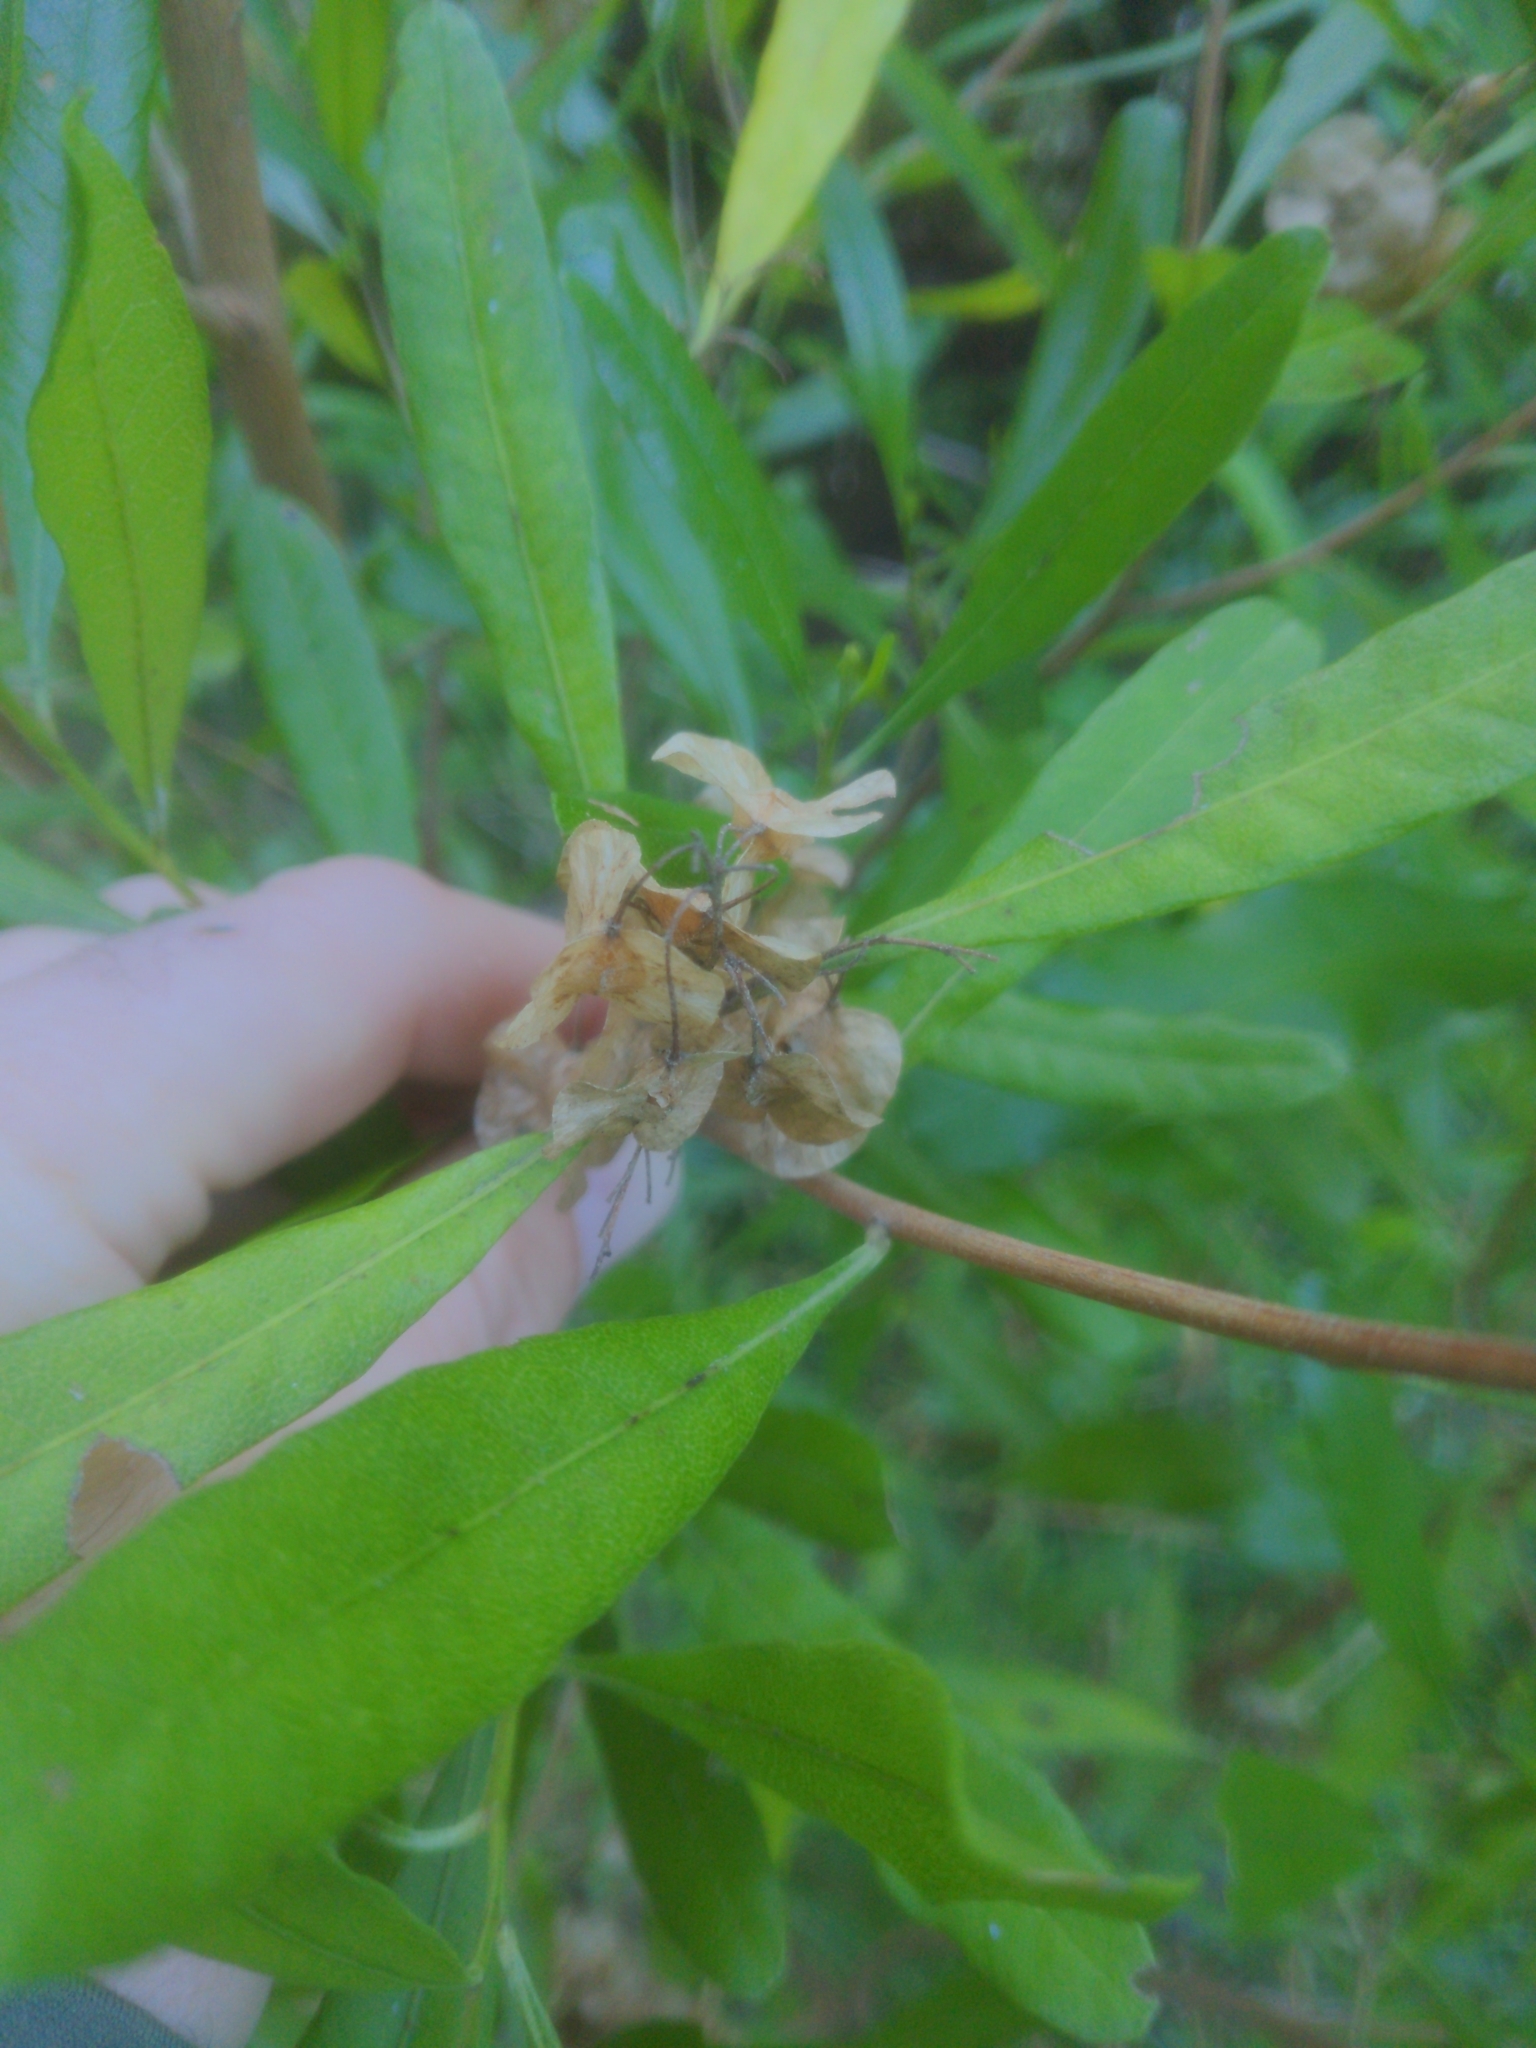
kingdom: Plantae
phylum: Tracheophyta
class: Magnoliopsida
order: Sapindales
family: Sapindaceae
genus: Dodonaea
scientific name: Dodonaea viscosa
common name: Hopbush
